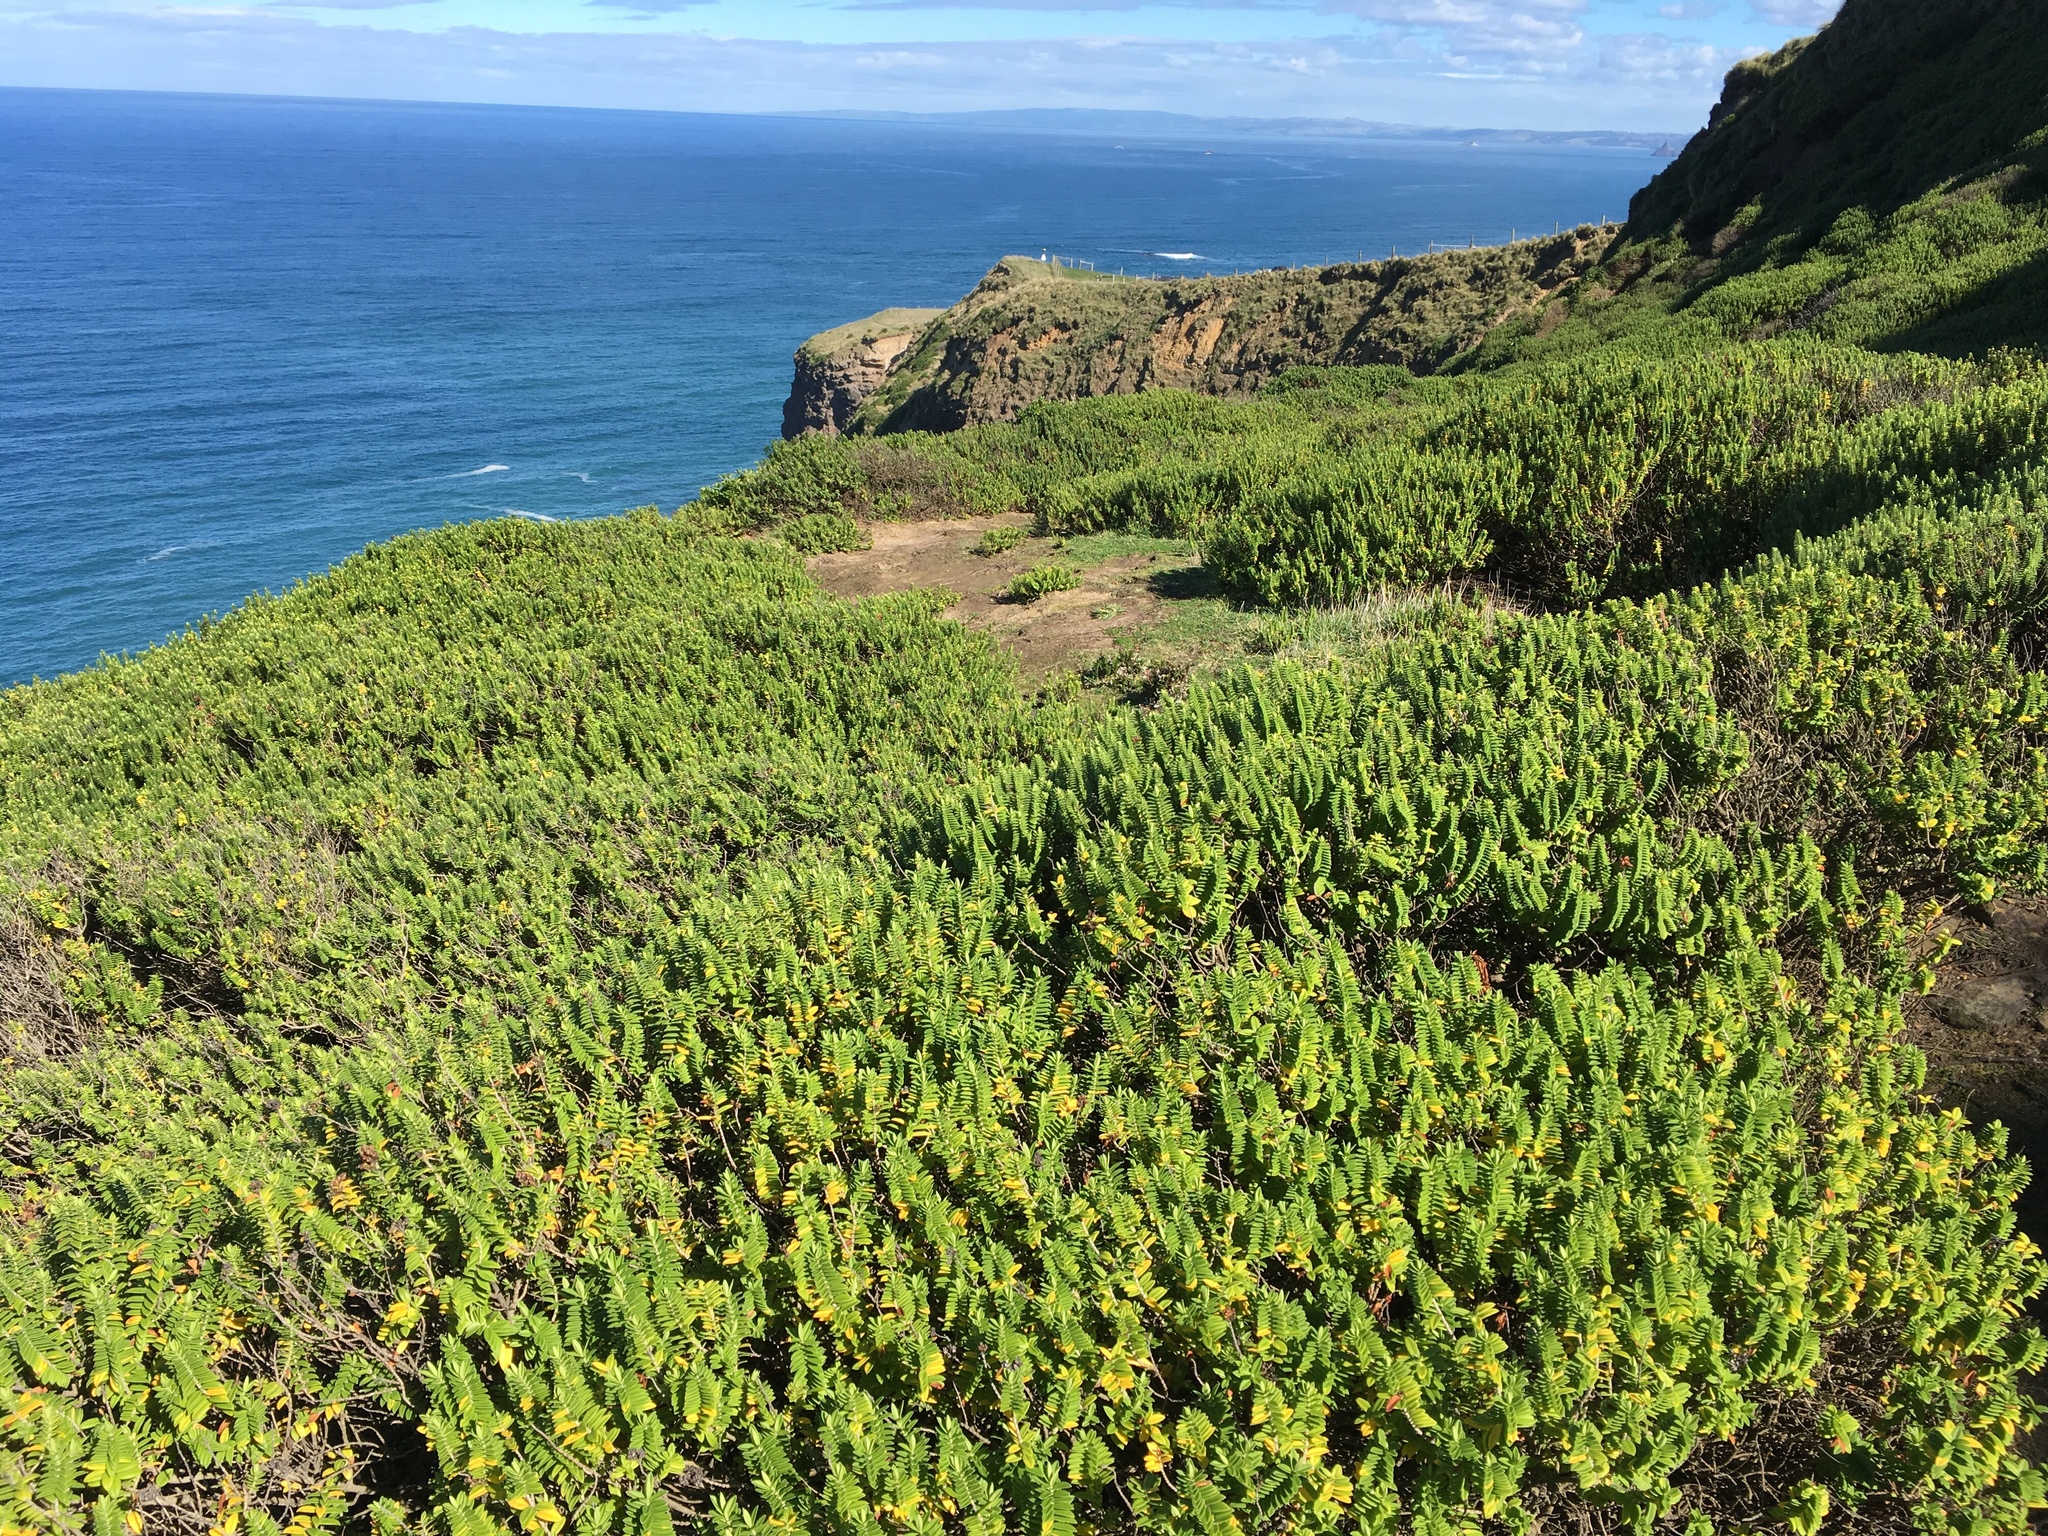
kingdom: Plantae
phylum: Tracheophyta
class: Magnoliopsida
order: Lamiales
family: Plantaginaceae
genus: Veronica
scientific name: Veronica elliptica
